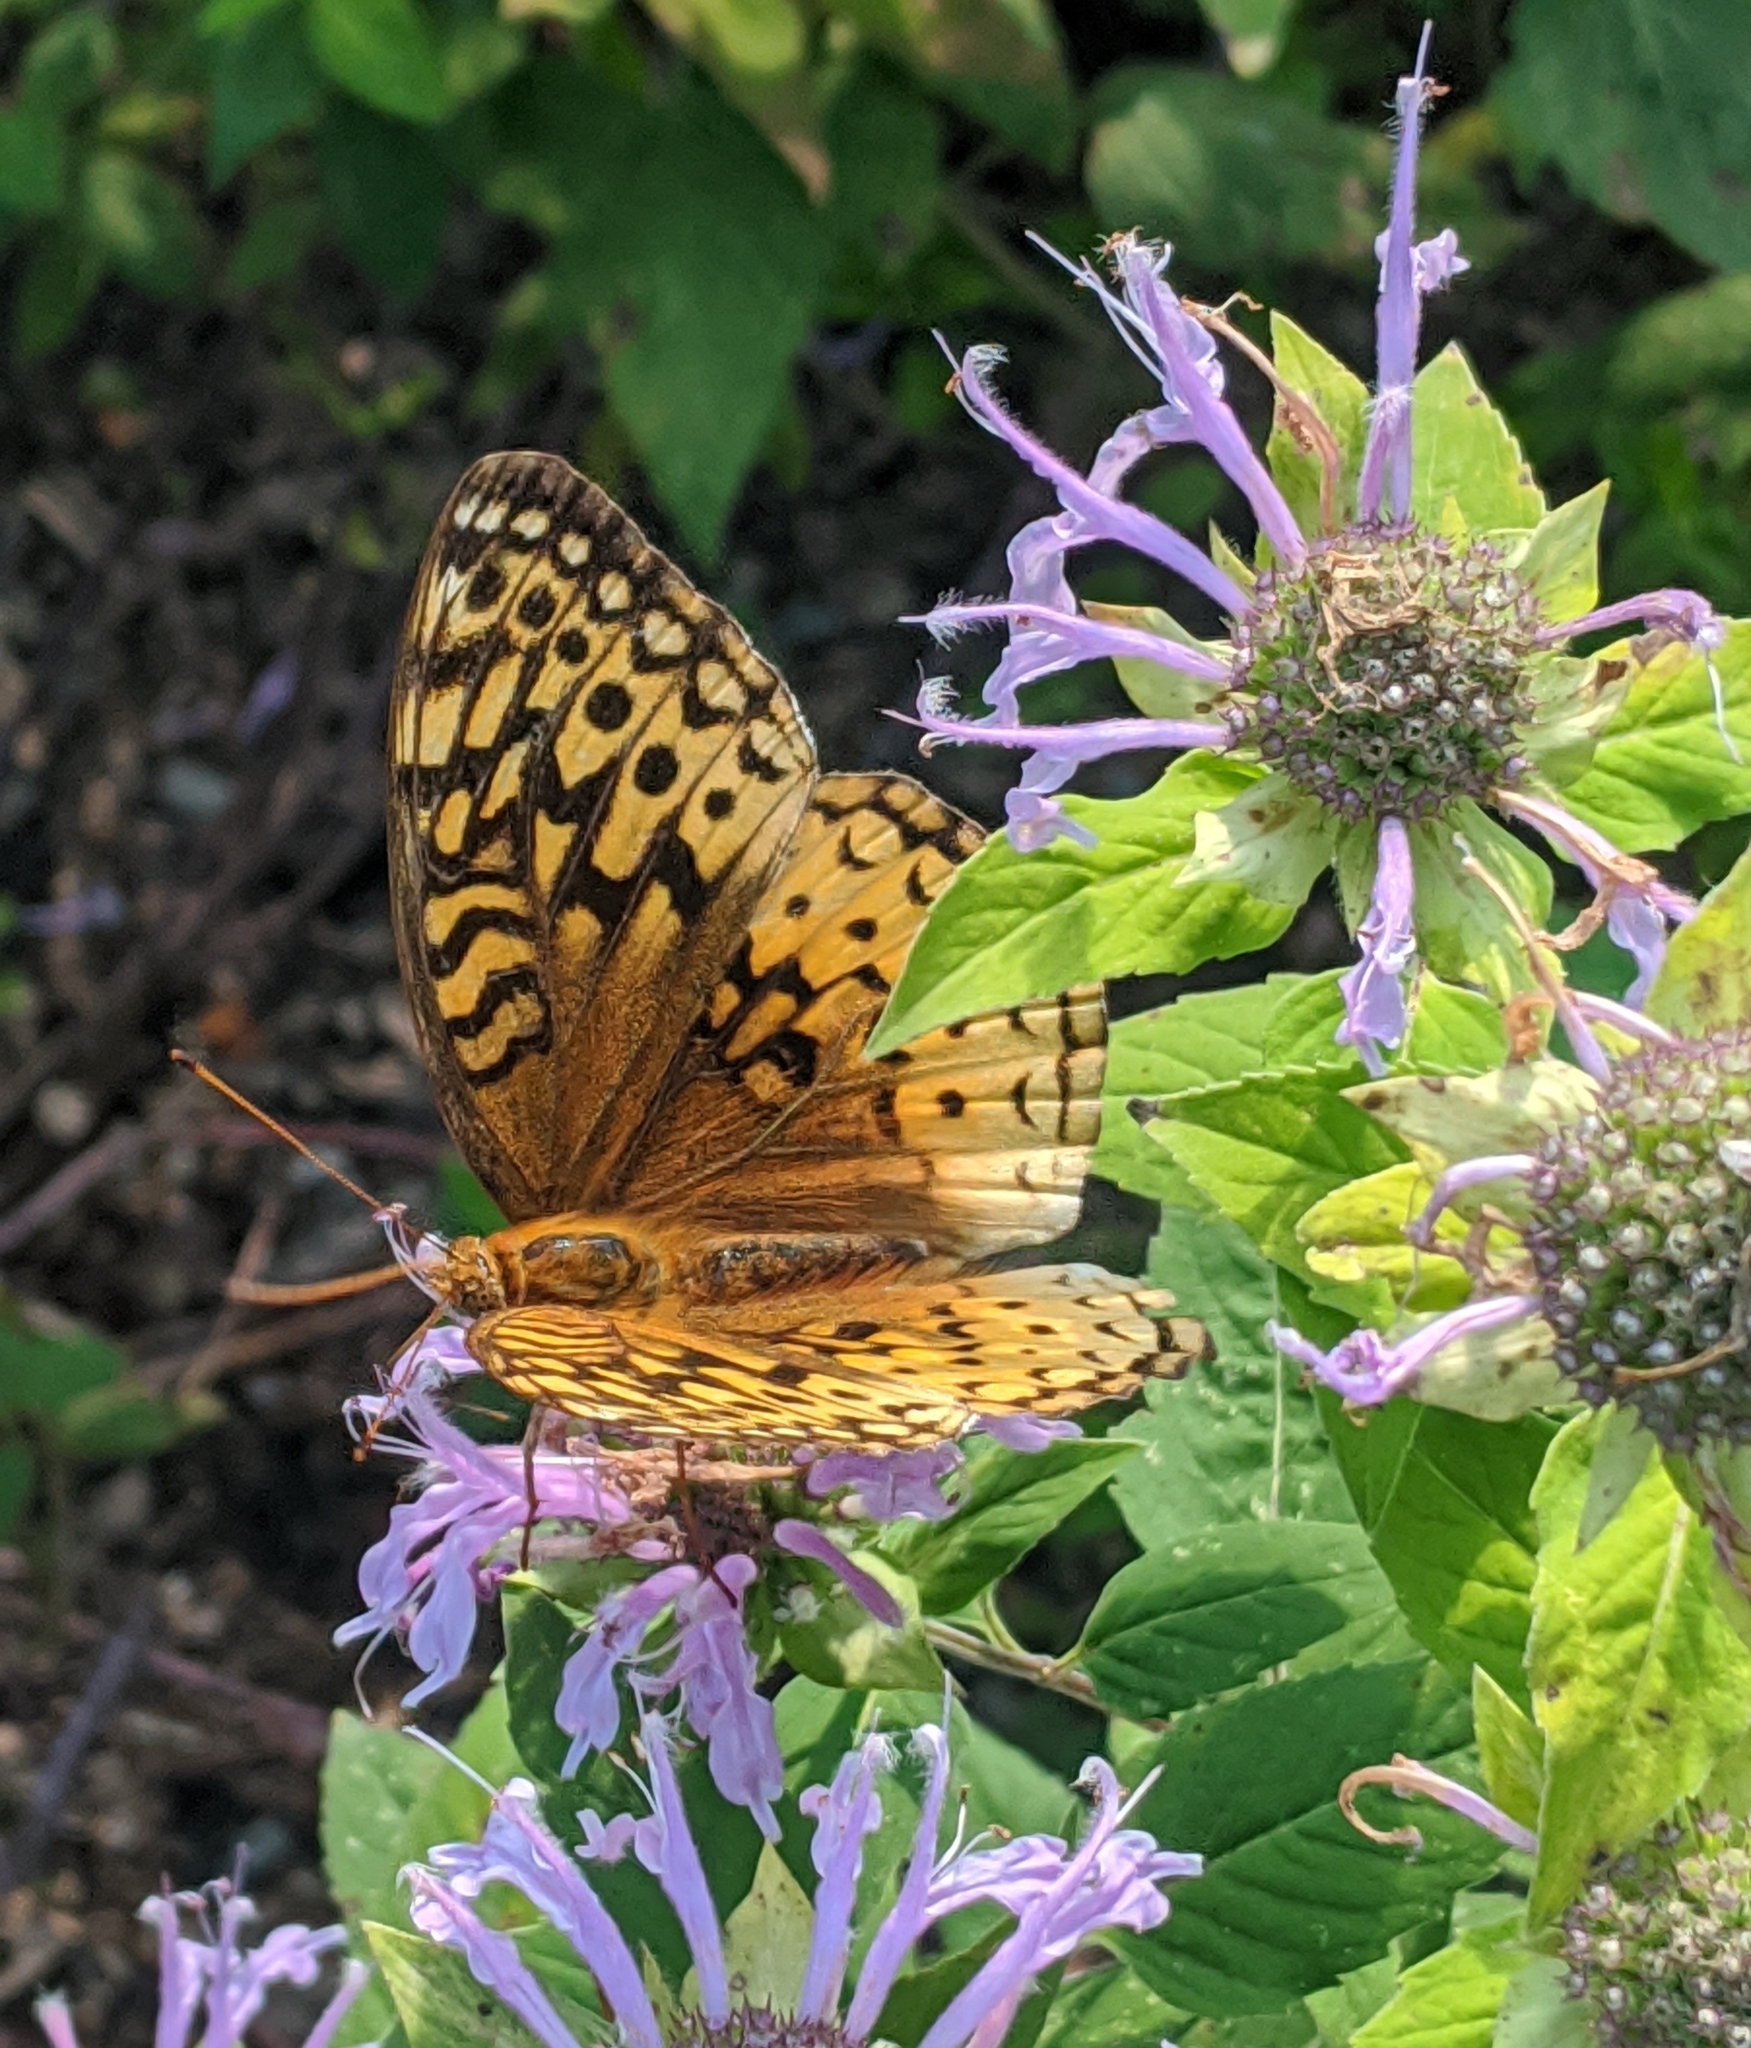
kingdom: Animalia
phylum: Arthropoda
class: Insecta
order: Lepidoptera
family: Nymphalidae
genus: Speyeria
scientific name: Speyeria cybele
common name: Great spangled fritillary
